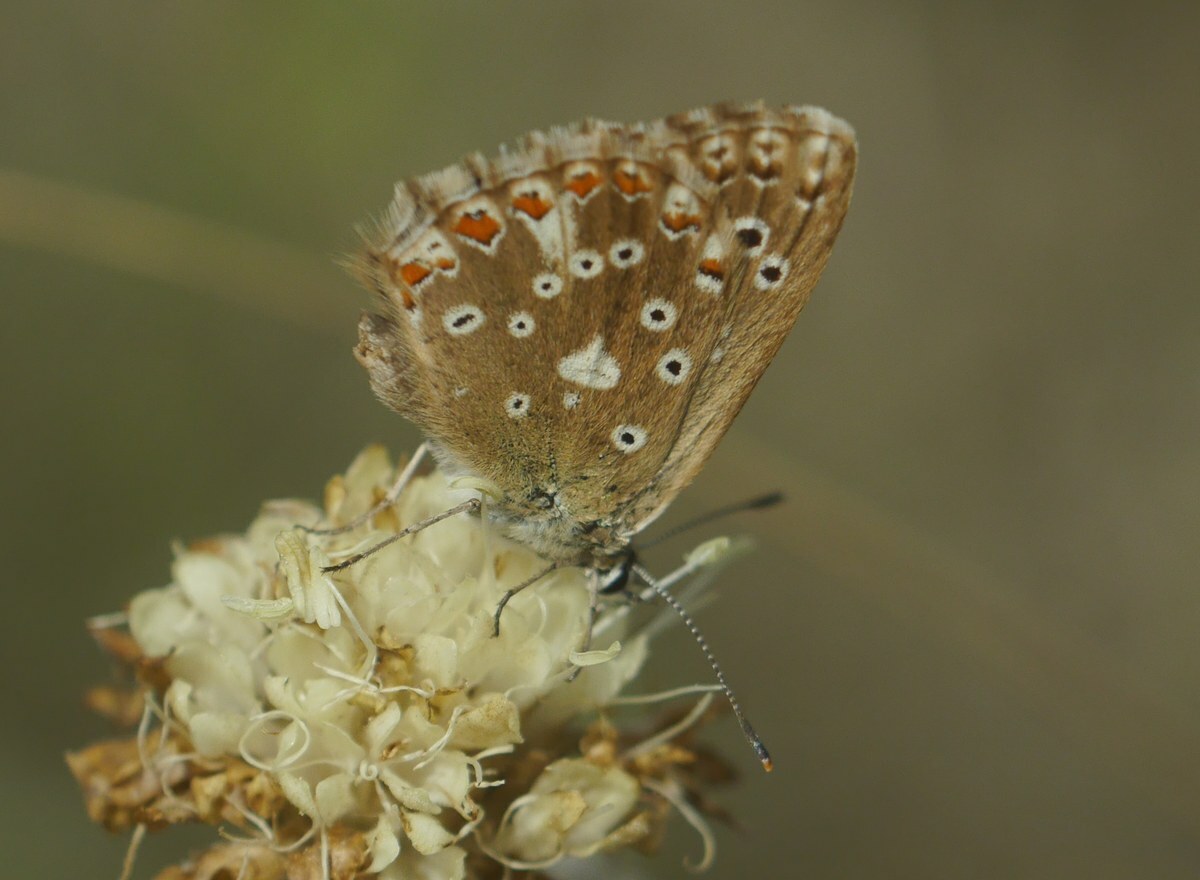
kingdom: Animalia
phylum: Arthropoda
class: Insecta
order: Lepidoptera
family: Lycaenidae
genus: Lysandra
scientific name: Lysandra coridon
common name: Chalkhill blue
